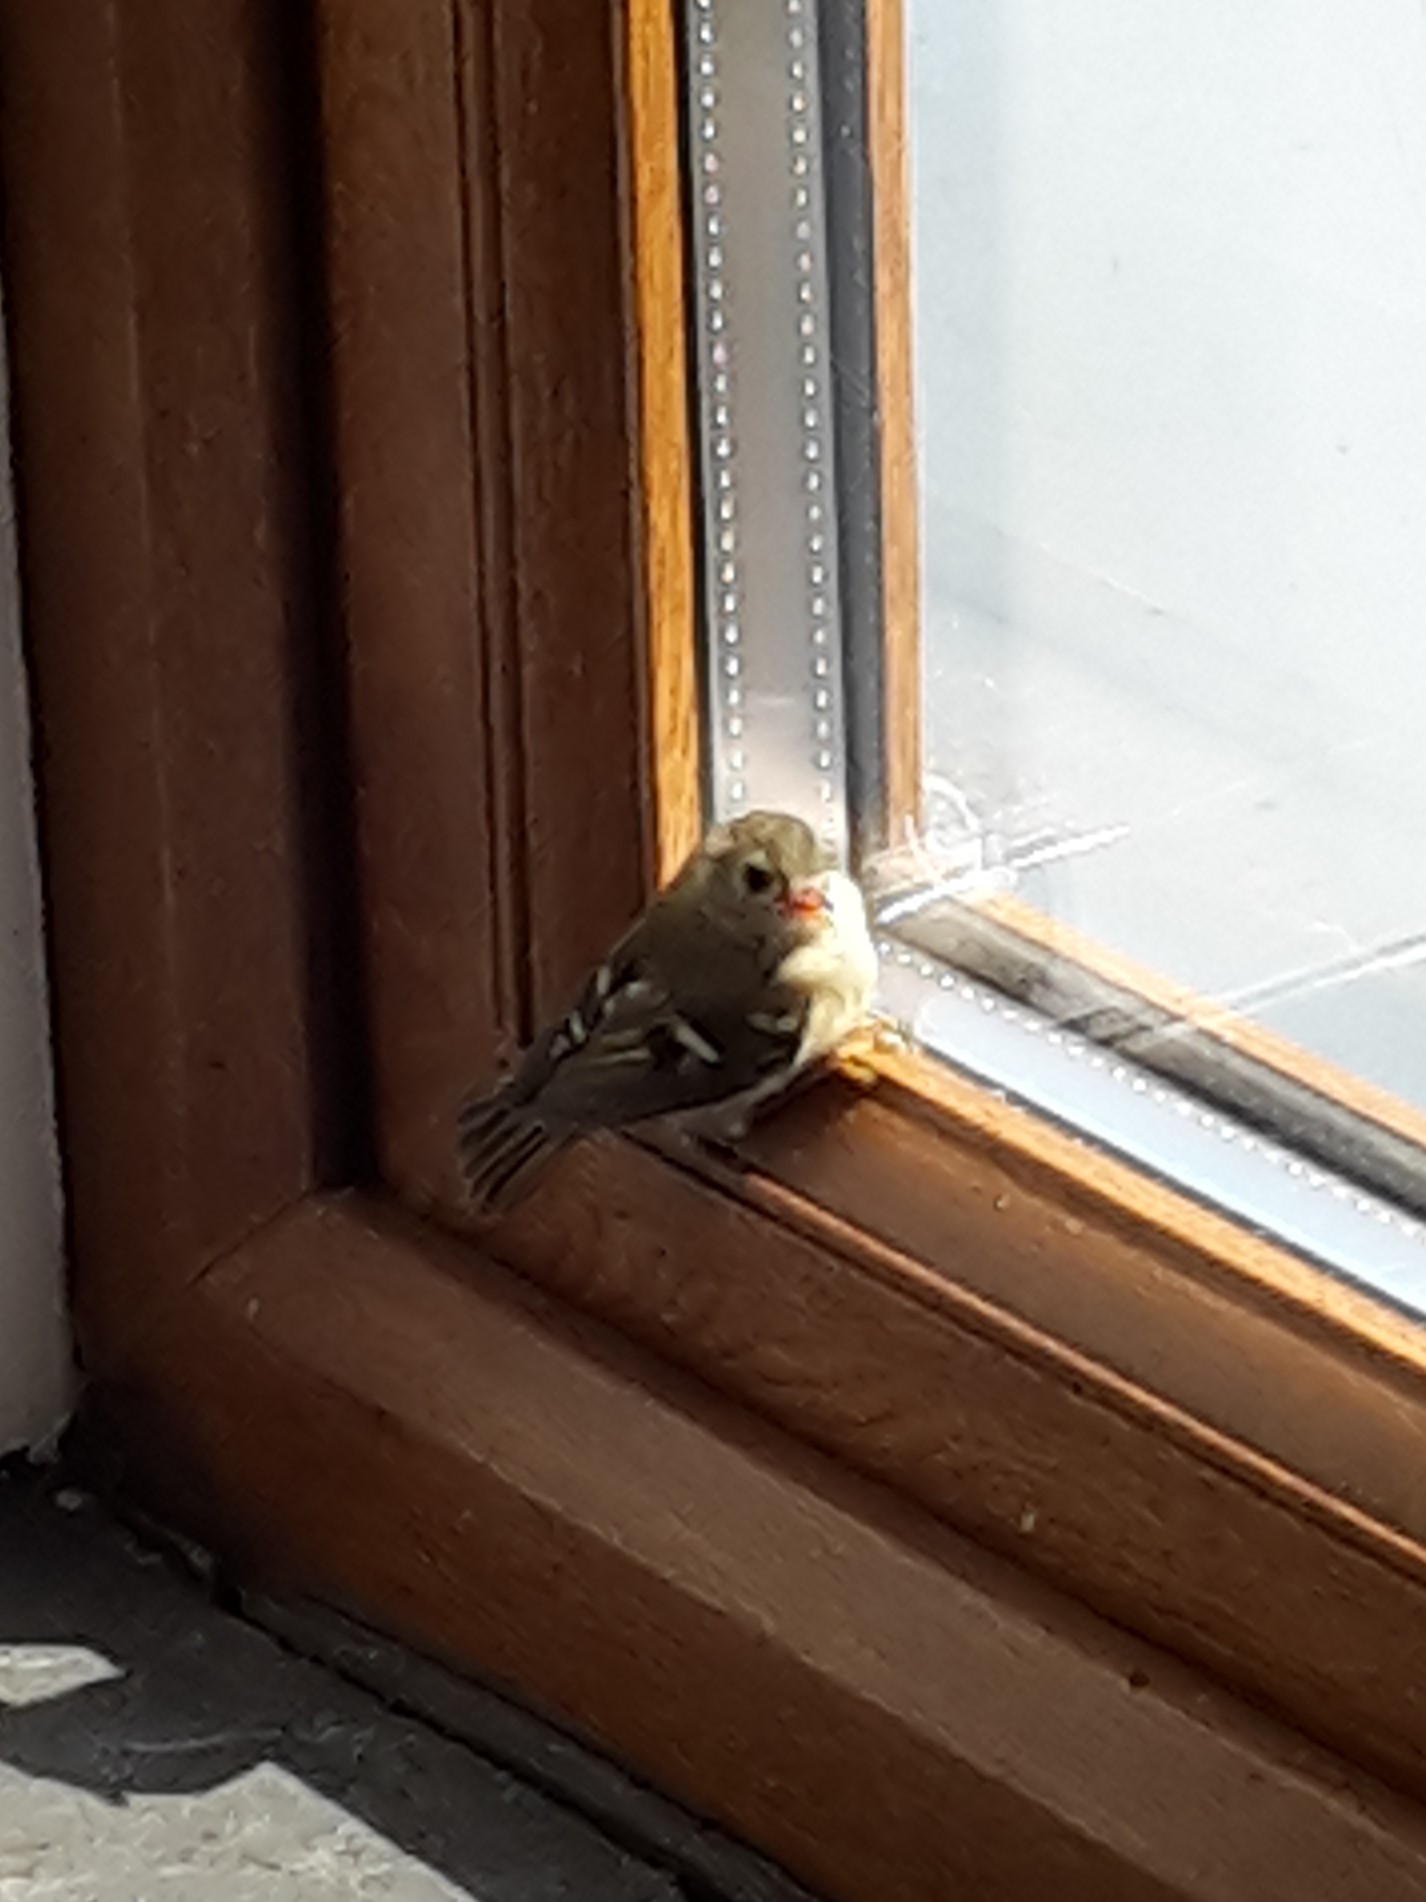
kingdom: Animalia
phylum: Chordata
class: Aves
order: Passeriformes
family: Regulidae
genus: Regulus
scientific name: Regulus regulus
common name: Goldcrest
